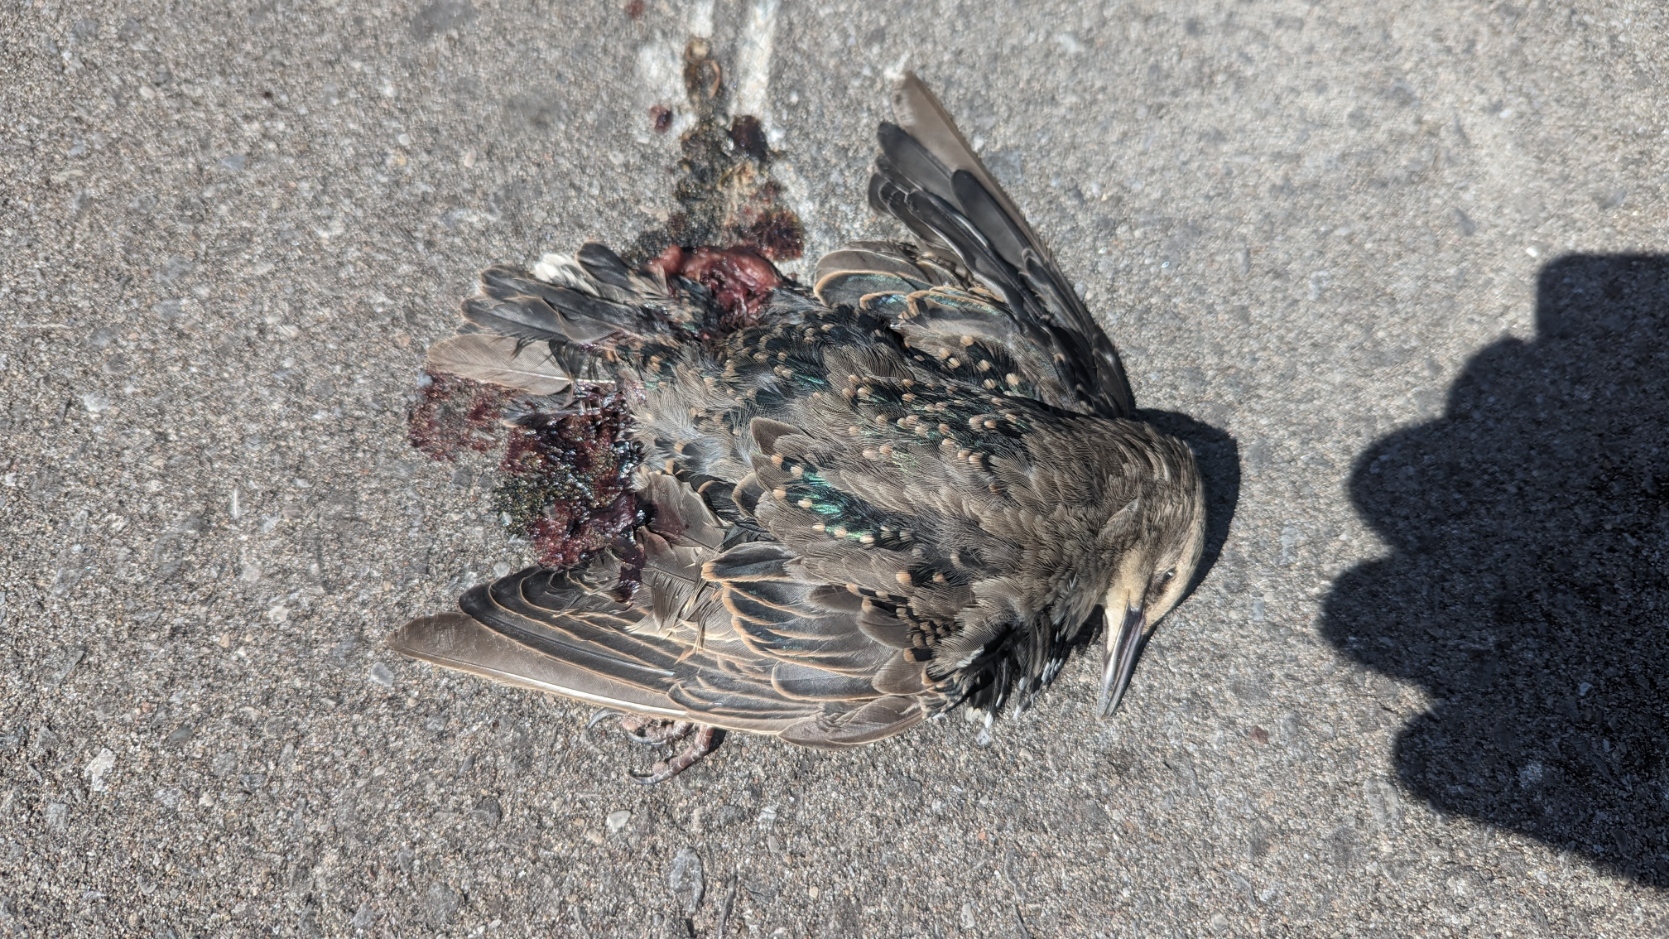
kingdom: Animalia
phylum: Chordata
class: Aves
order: Passeriformes
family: Sturnidae
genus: Sturnus
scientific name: Sturnus vulgaris
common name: Common starling
